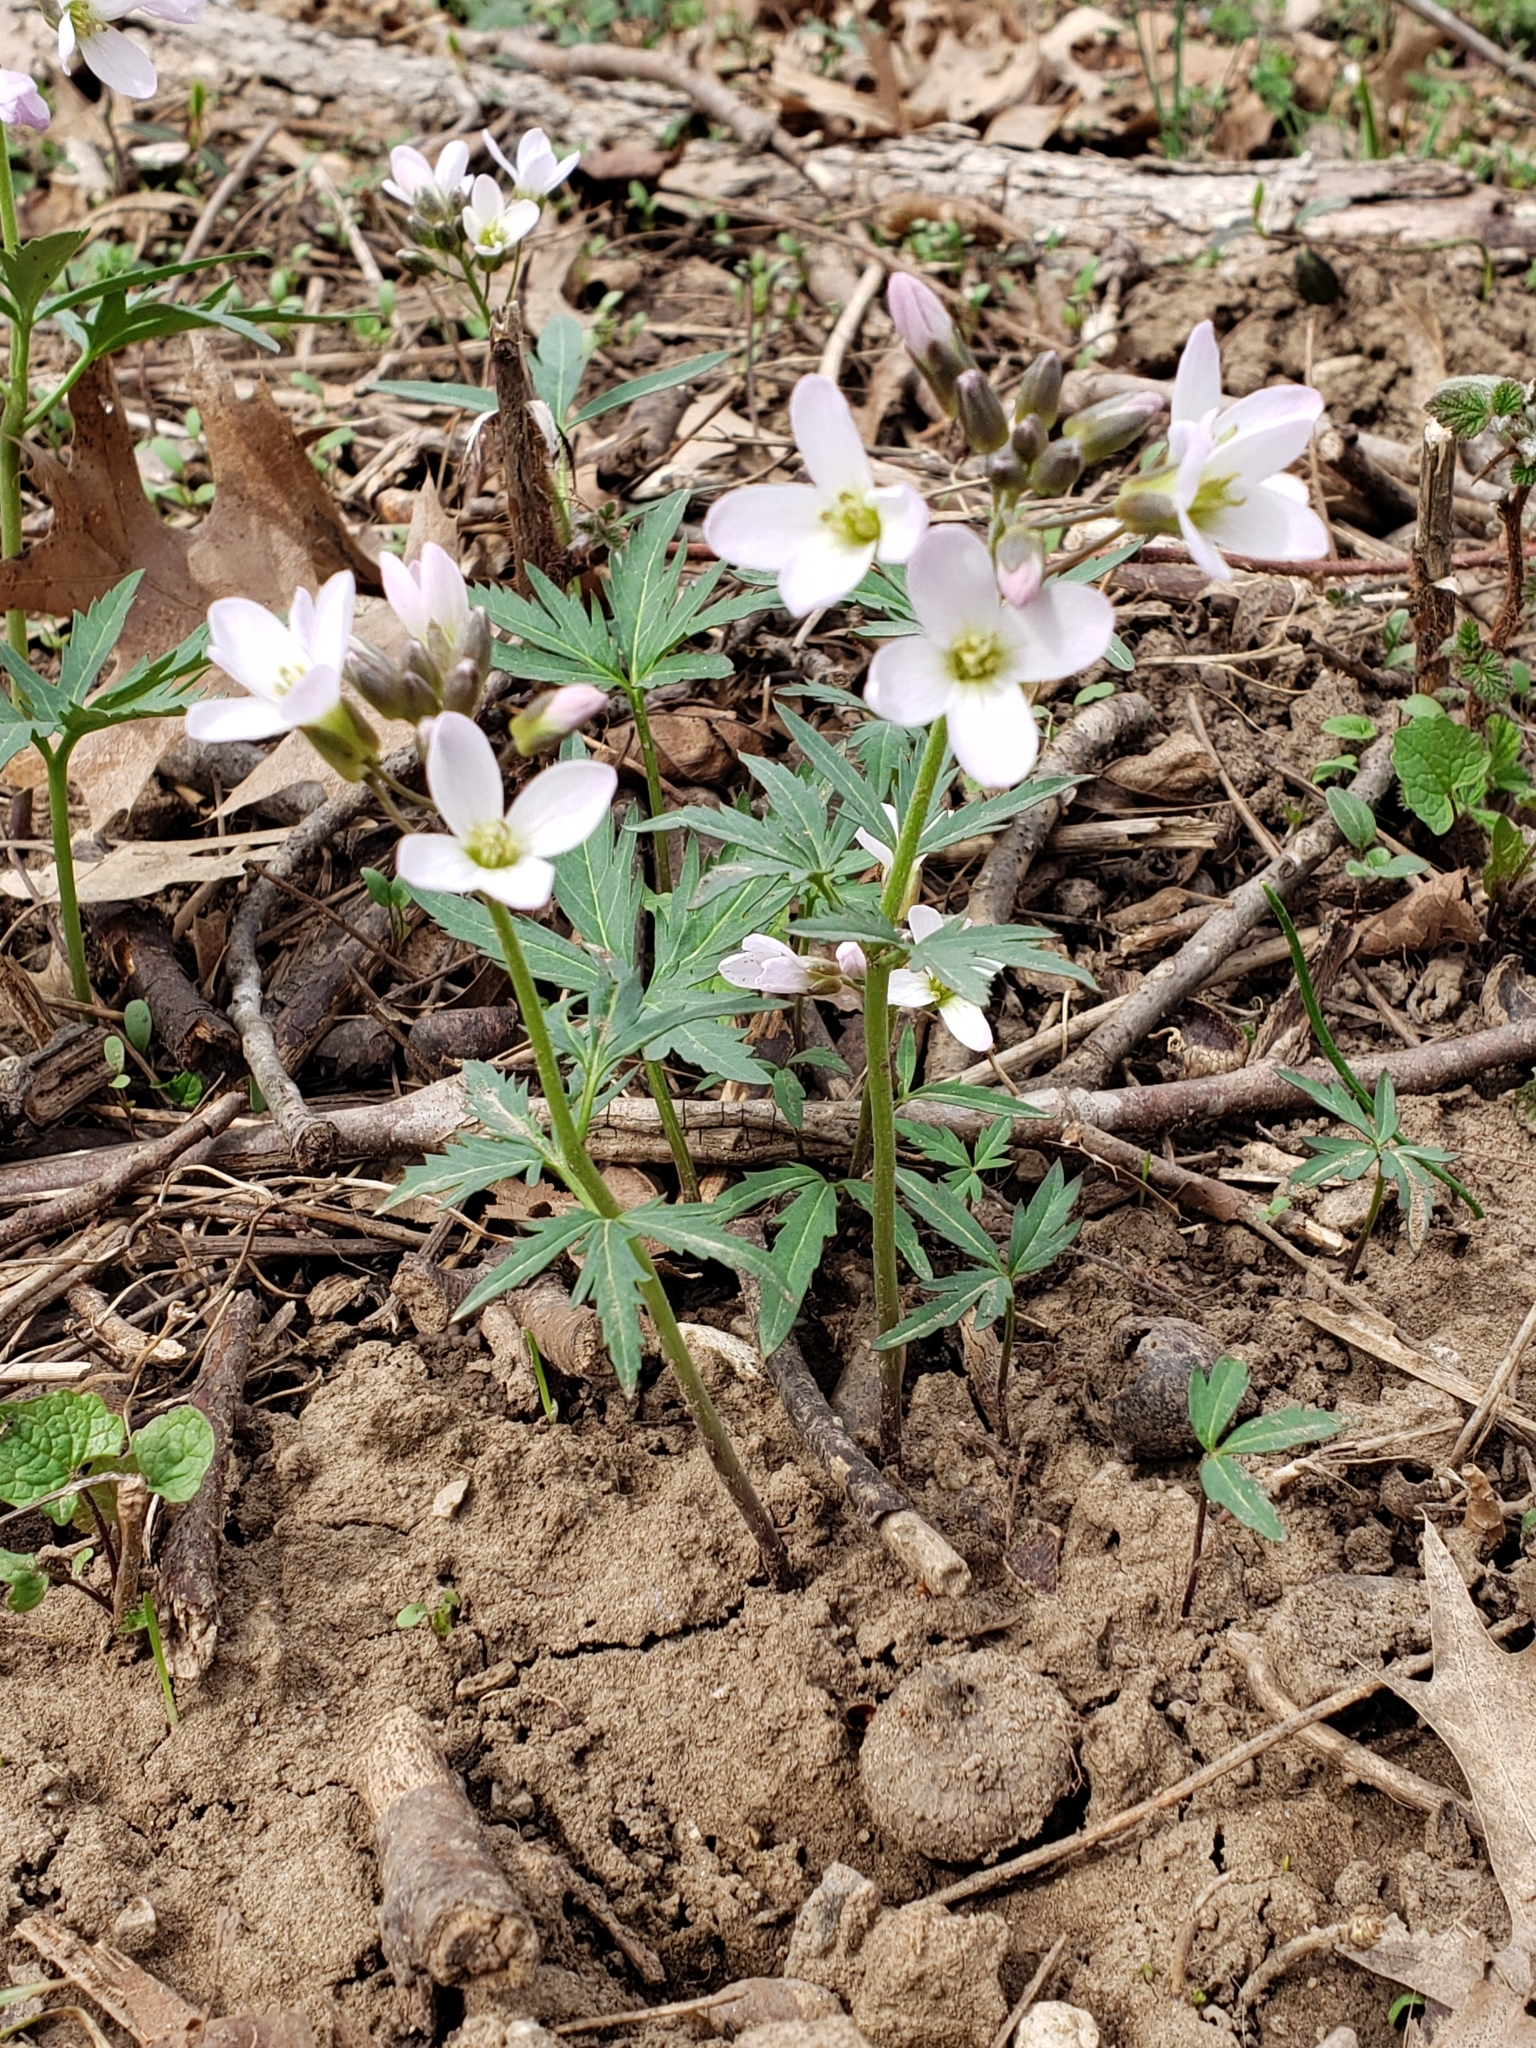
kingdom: Plantae
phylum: Tracheophyta
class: Magnoliopsida
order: Brassicales
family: Brassicaceae
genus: Cardamine
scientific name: Cardamine concatenata
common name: Cut-leaf toothcup
